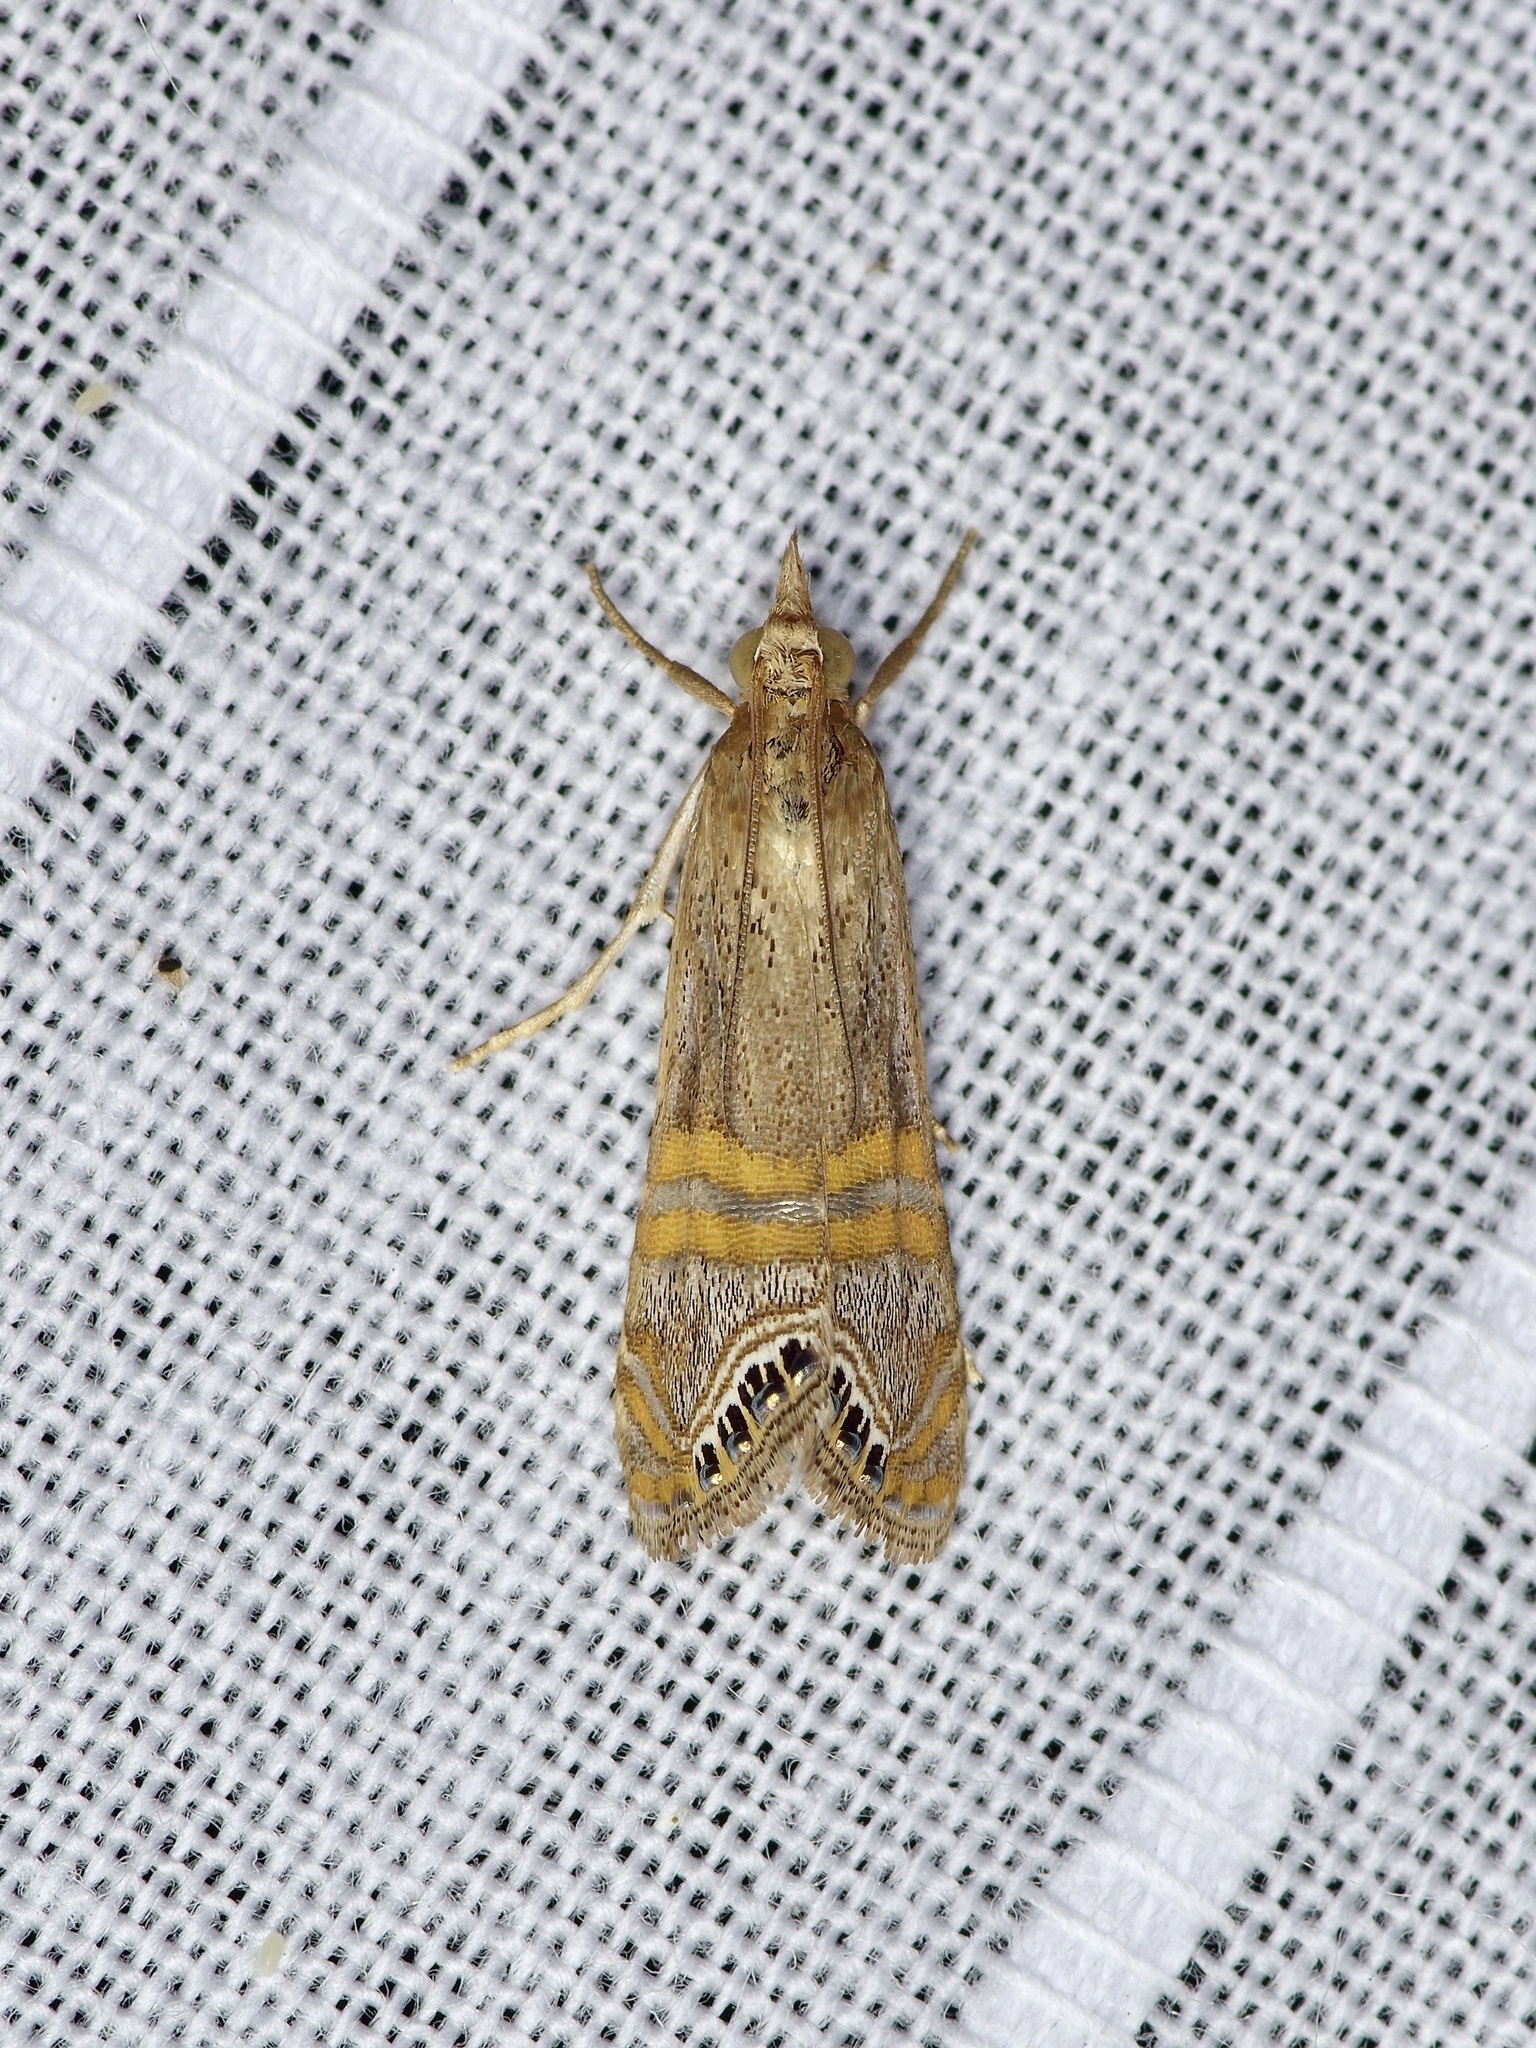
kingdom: Animalia
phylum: Arthropoda
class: Insecta
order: Lepidoptera
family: Crambidae
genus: Euchromius
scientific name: Euchromius ocellea
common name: Necklace veneer moth
